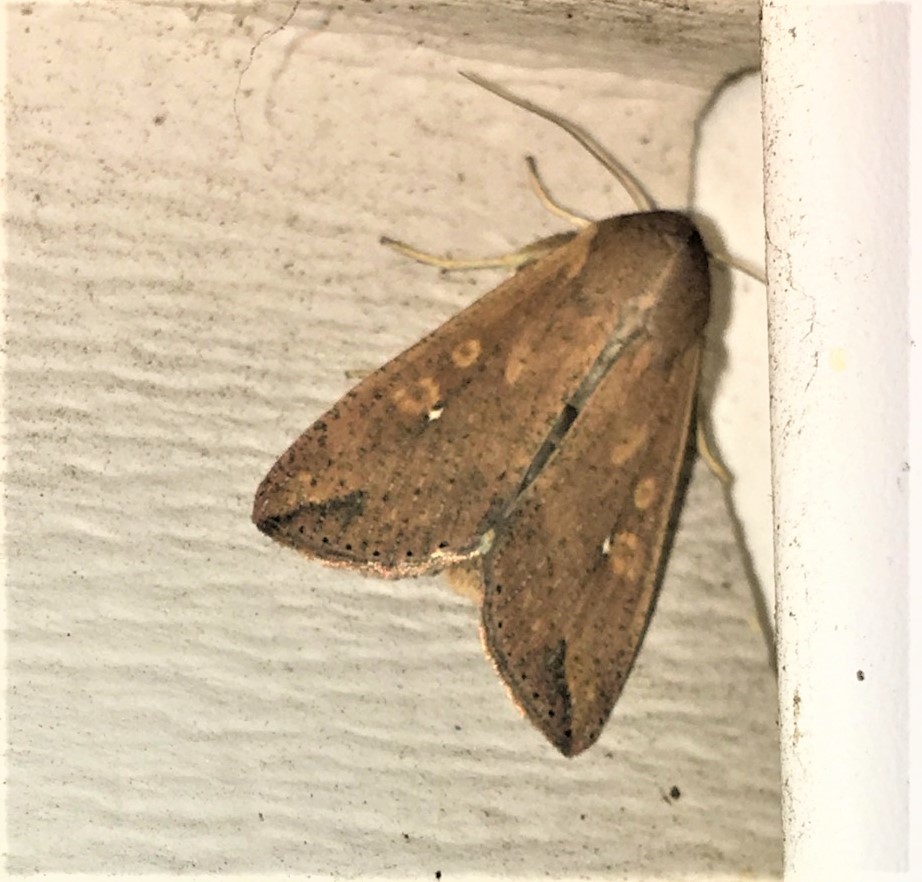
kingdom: Animalia
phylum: Arthropoda
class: Insecta
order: Lepidoptera
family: Noctuidae
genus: Mythimna
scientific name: Mythimna unipuncta
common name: White-speck
